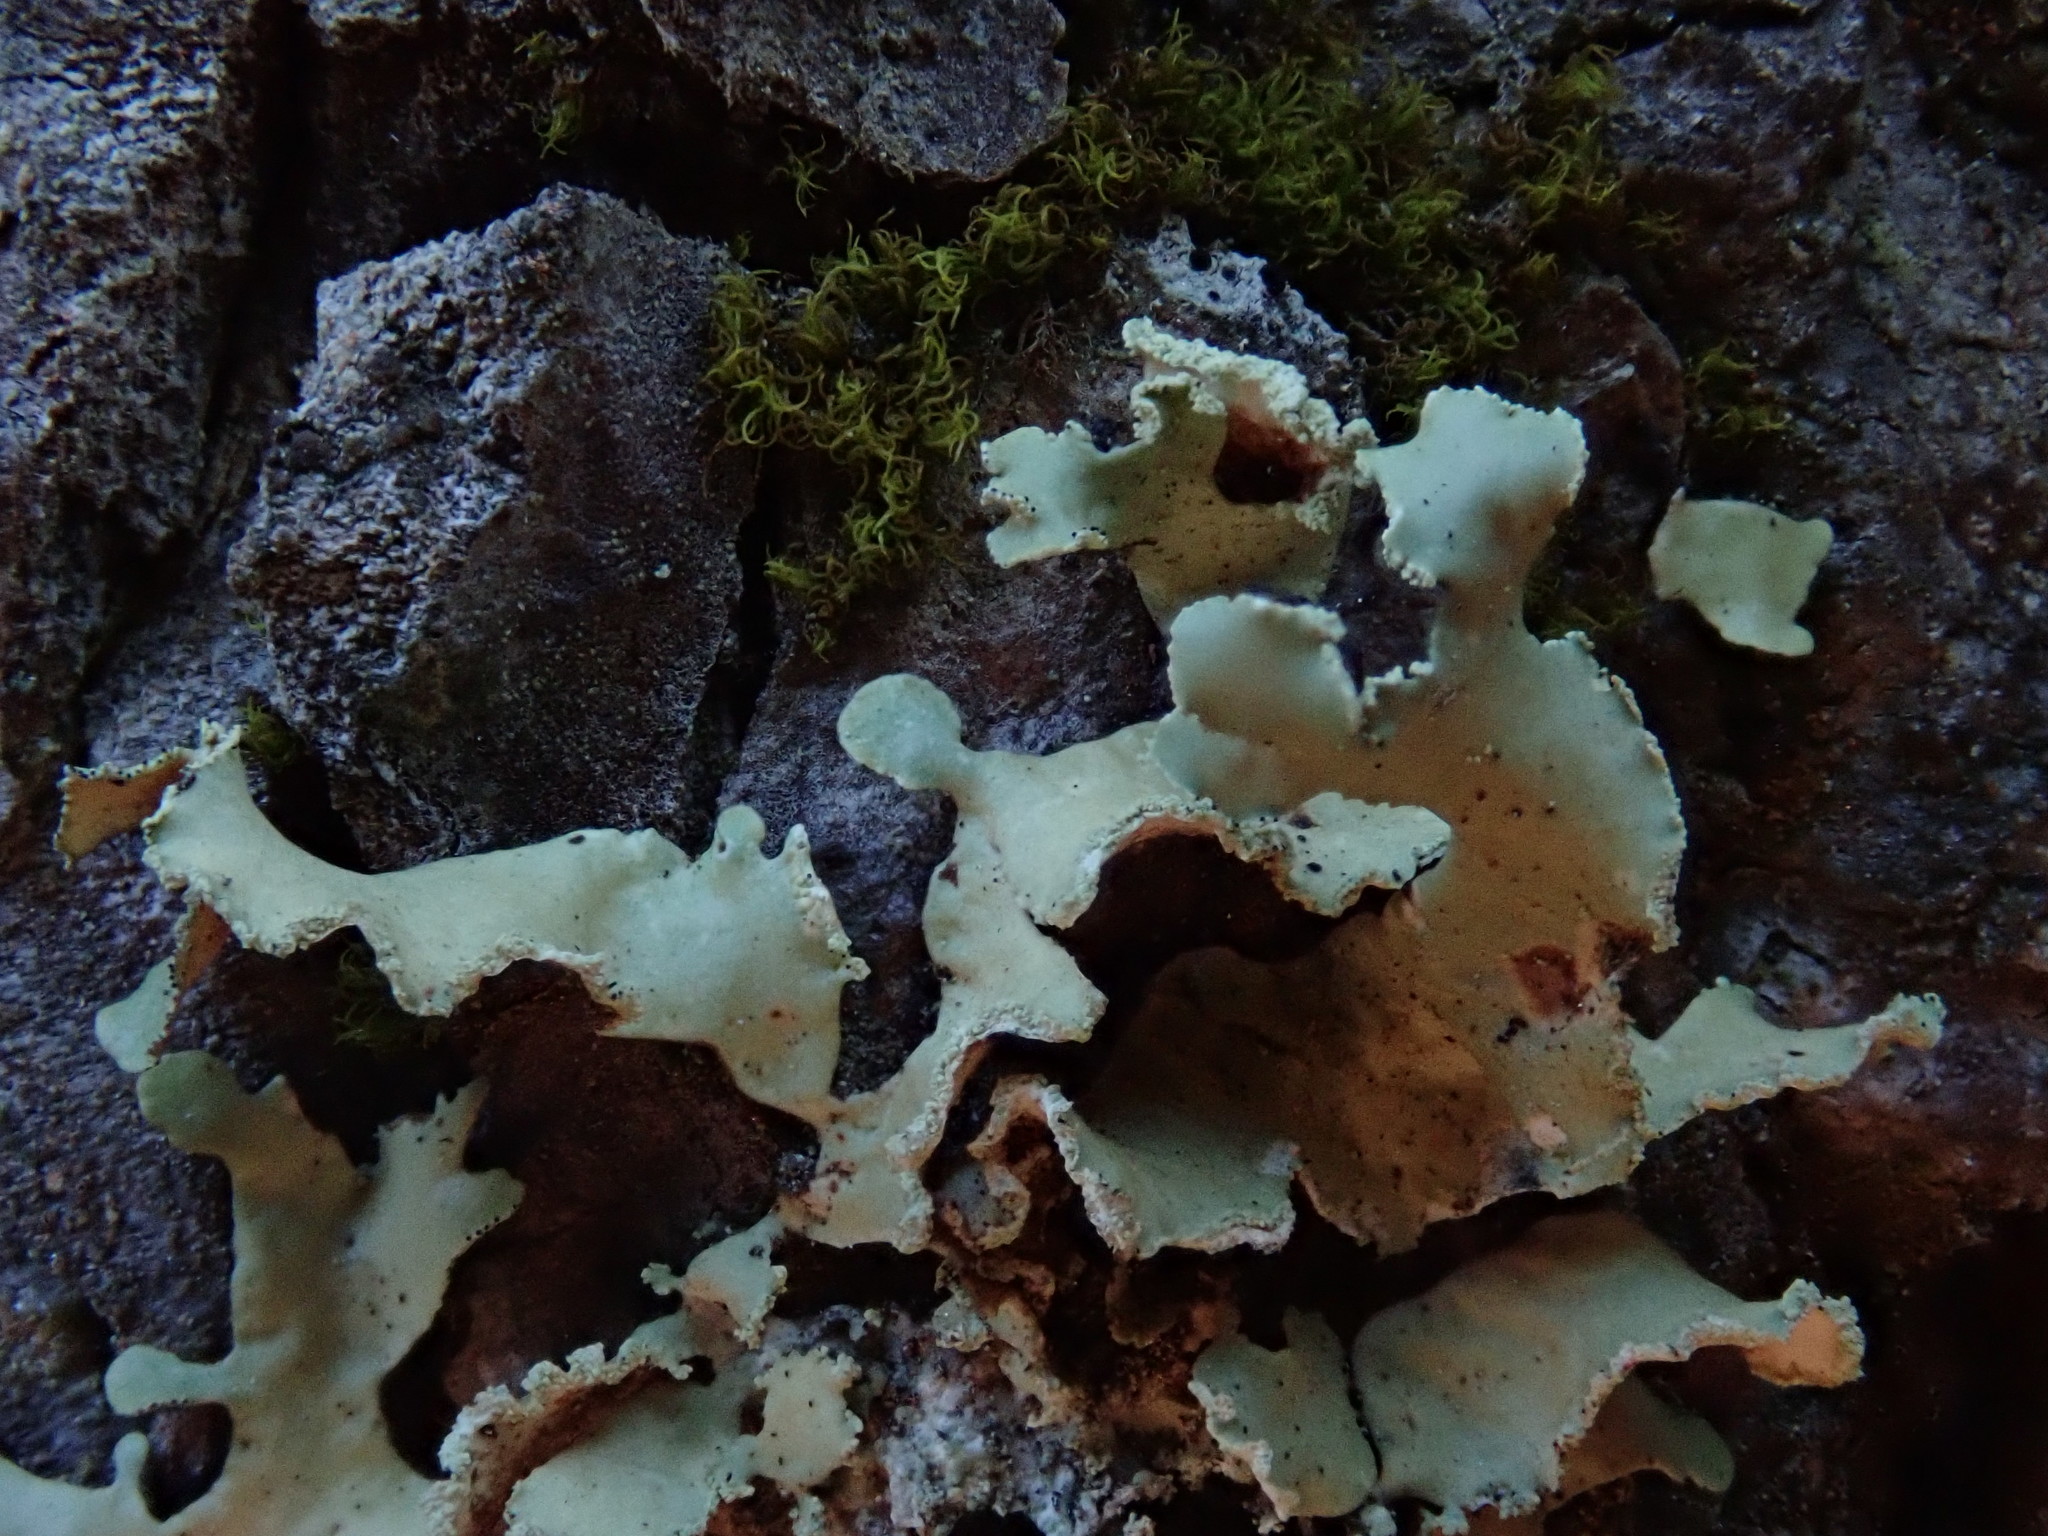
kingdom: Fungi
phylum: Ascomycota
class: Lecanoromycetes
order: Lecanorales
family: Parmeliaceae
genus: Usnocetraria
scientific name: Usnocetraria oakesiana
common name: Yellow ribbon lichen
